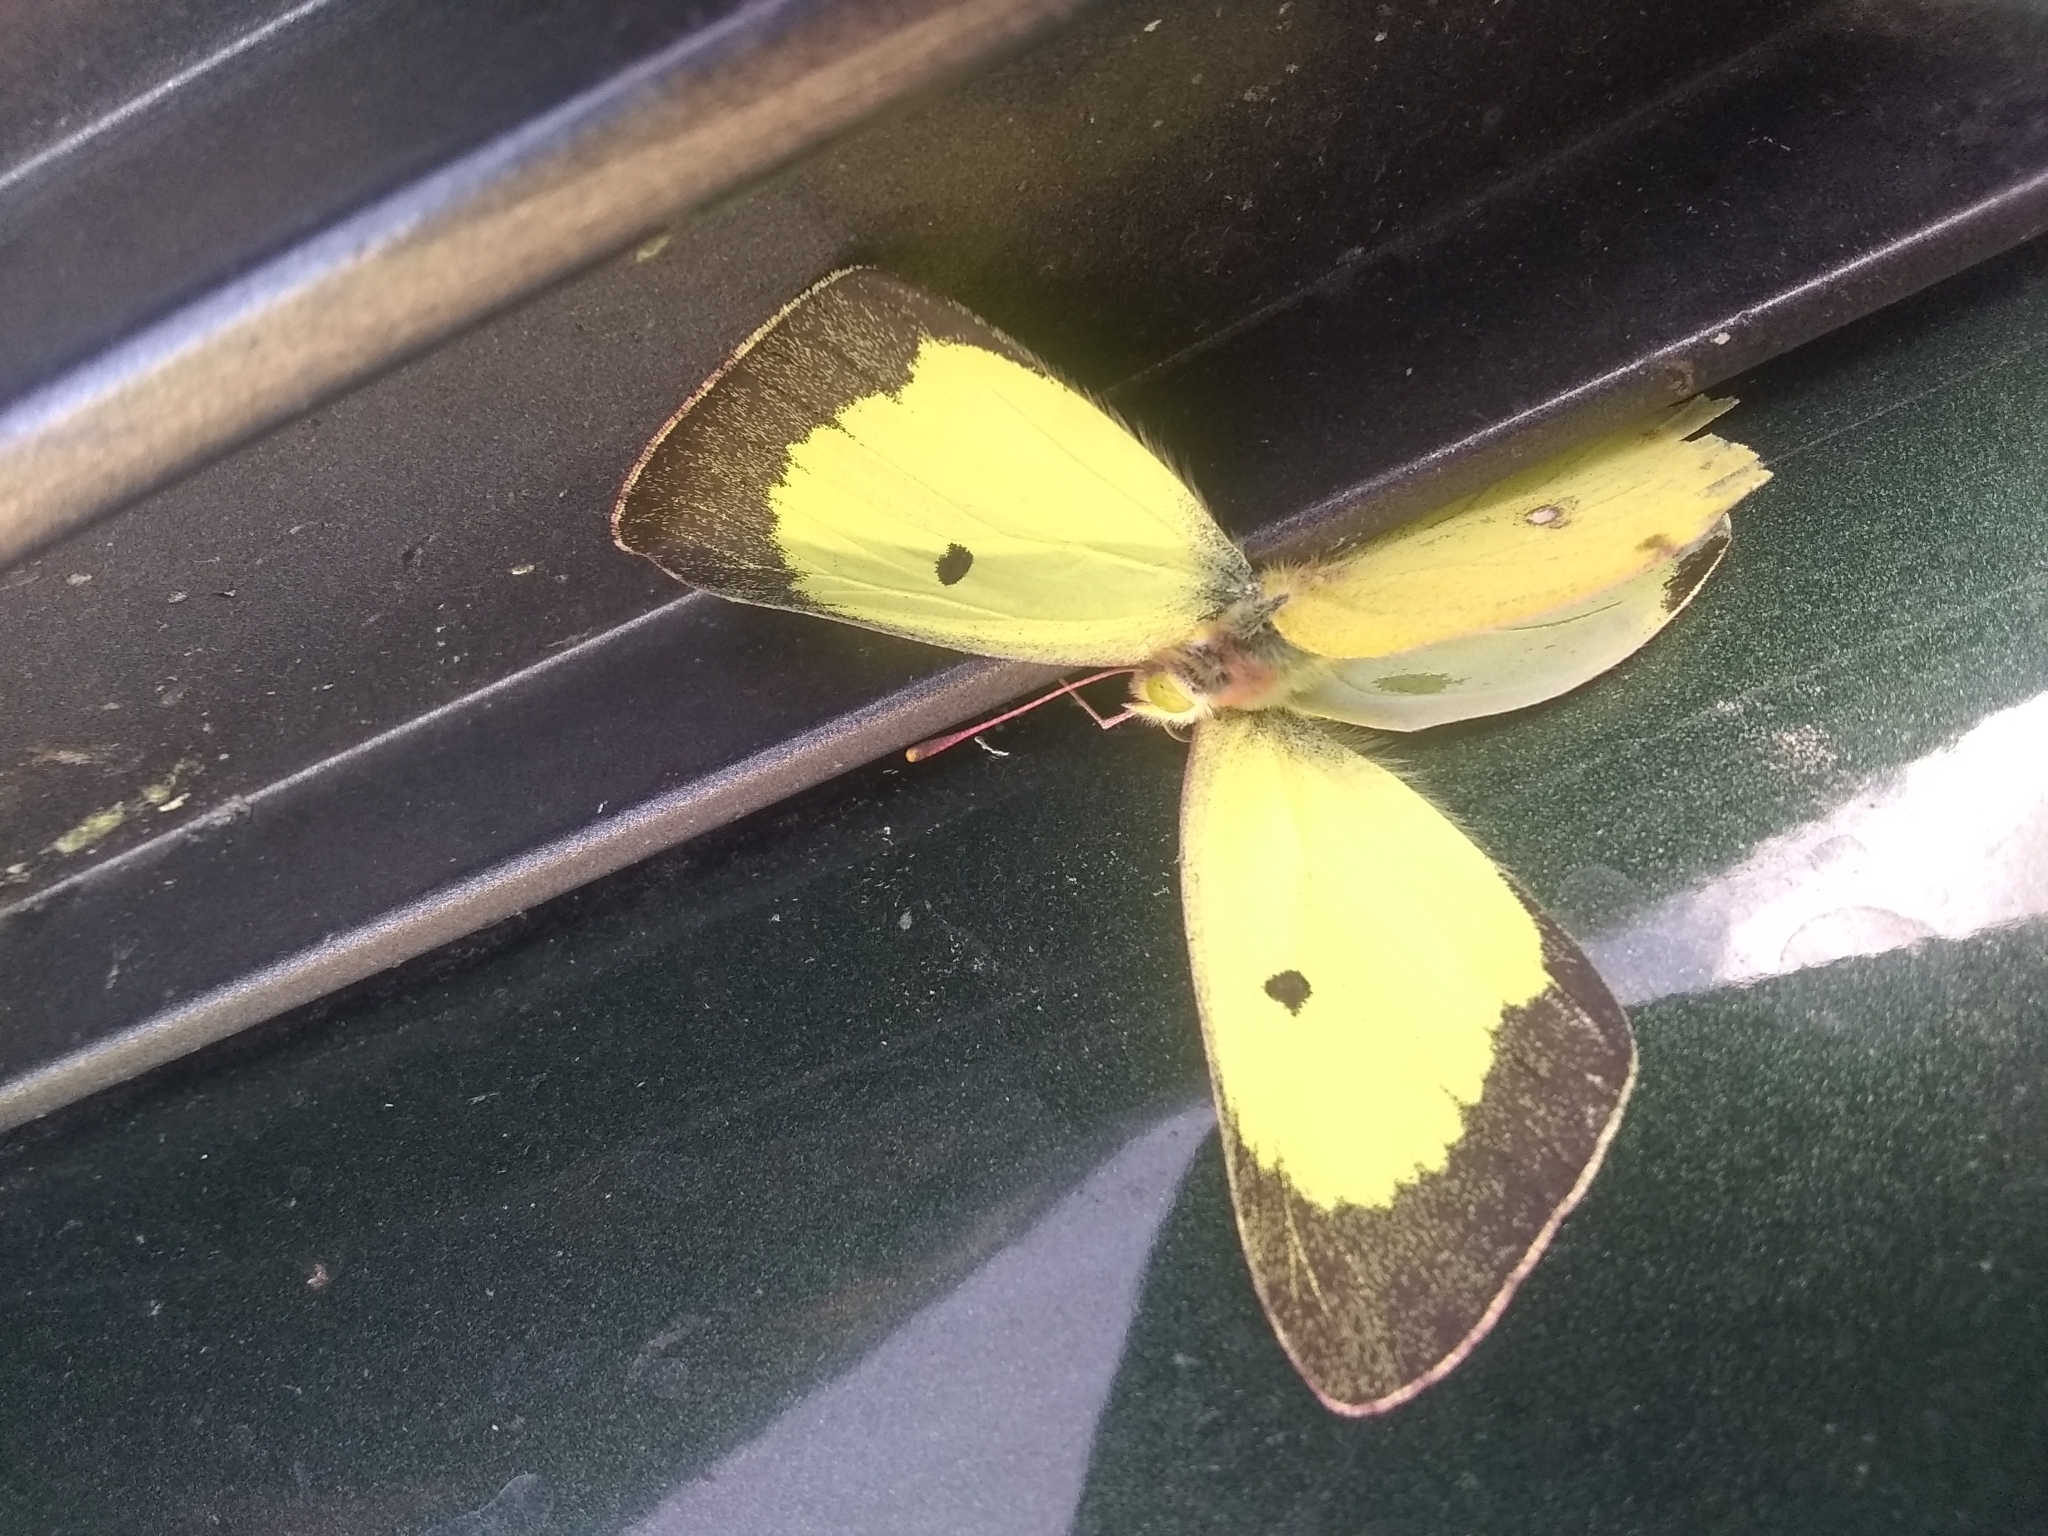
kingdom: Animalia
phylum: Arthropoda
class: Insecta
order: Lepidoptera
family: Pieridae
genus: Colias
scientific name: Colias philodice
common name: Clouded sulphur
